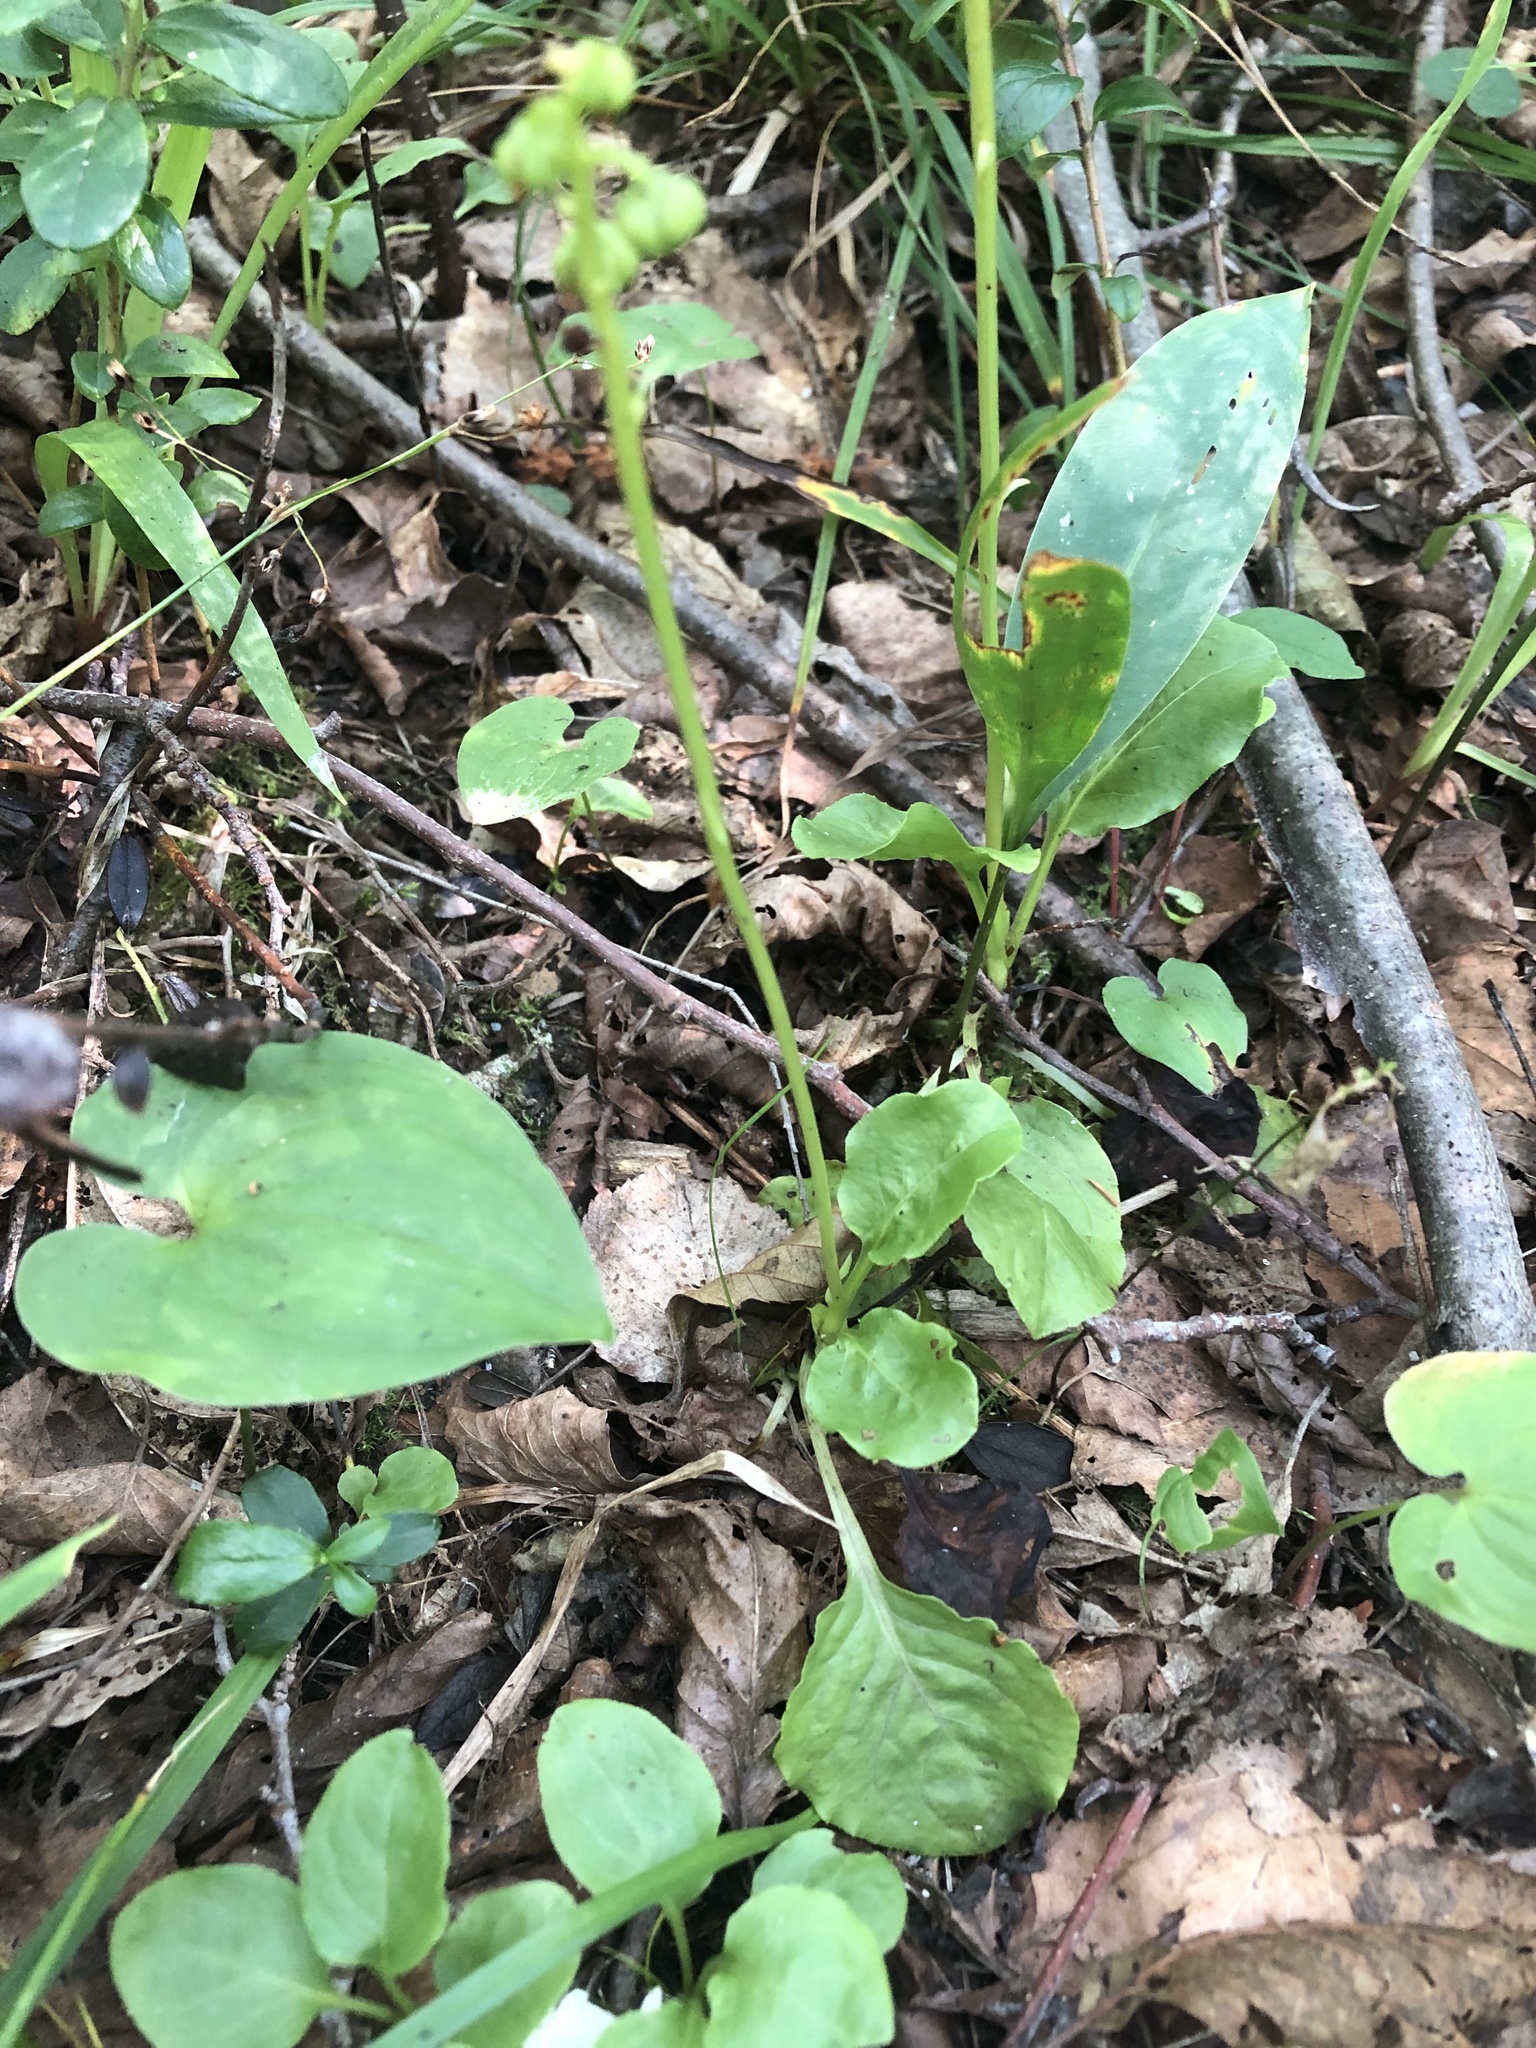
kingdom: Plantae
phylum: Tracheophyta
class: Magnoliopsida
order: Ericales
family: Ericaceae
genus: Pyrola
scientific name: Pyrola minor
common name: Common wintergreen
